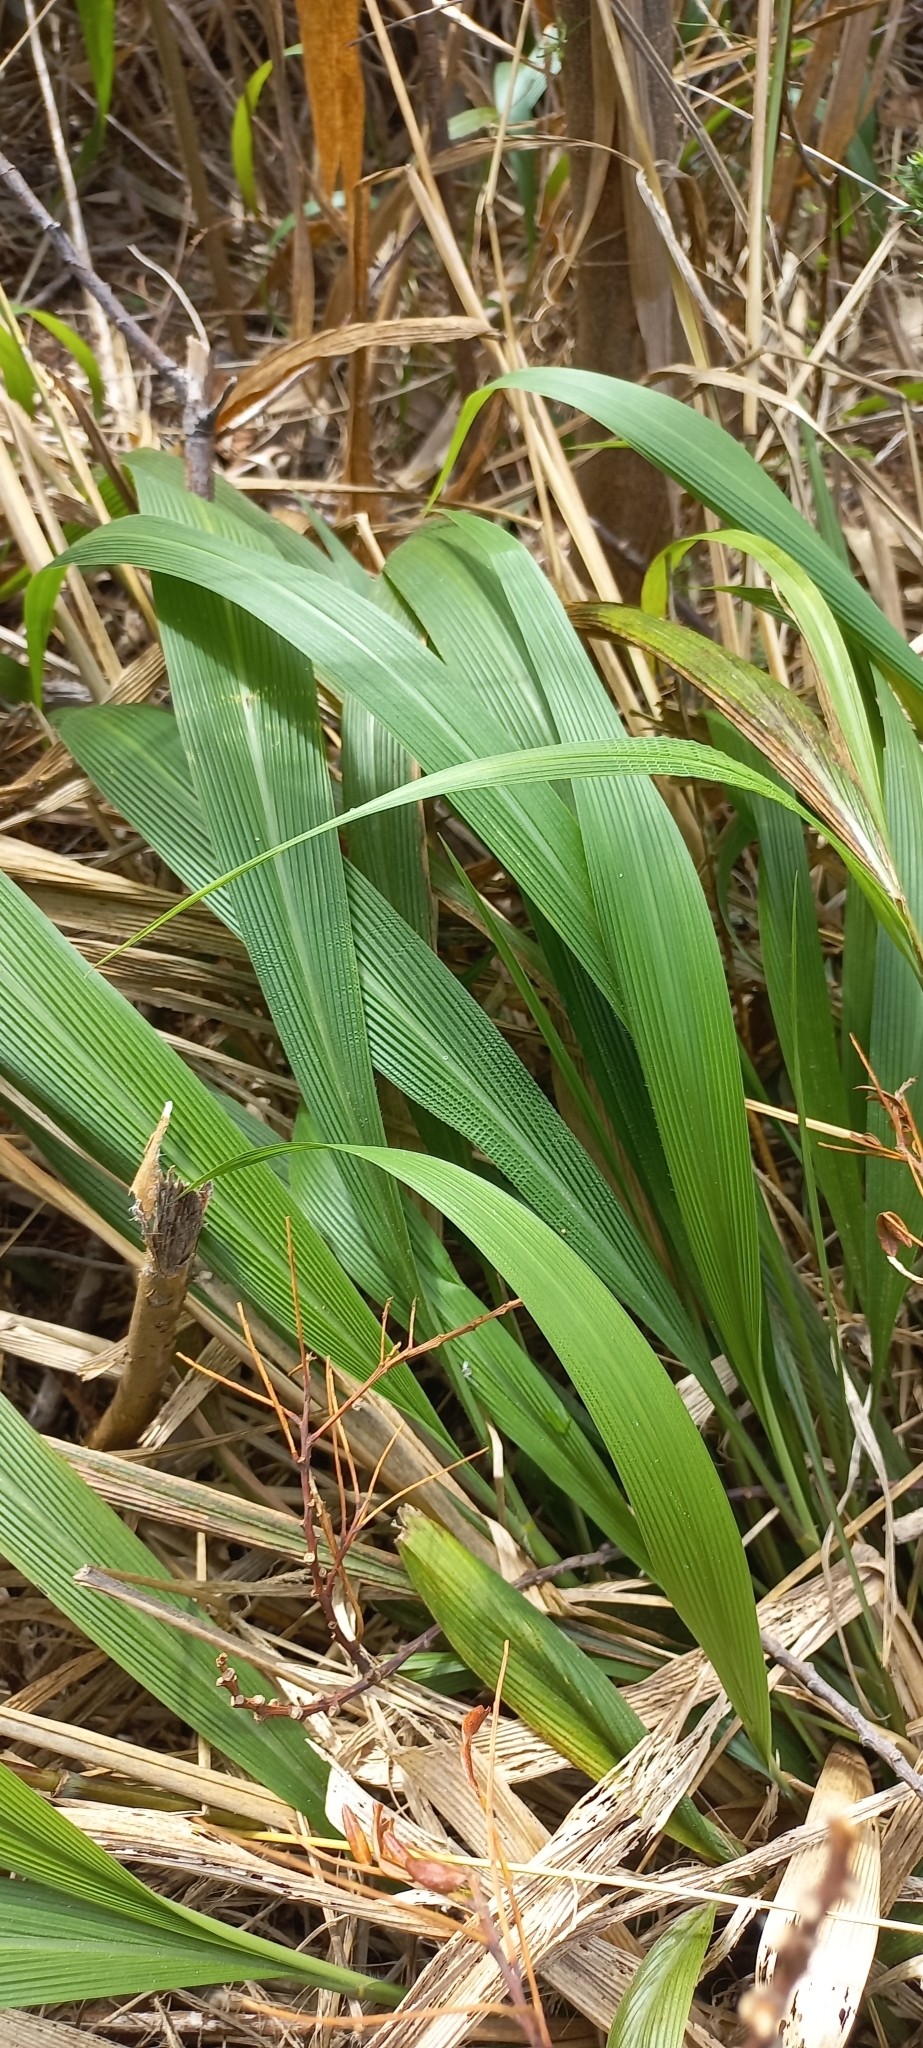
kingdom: Plantae
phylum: Tracheophyta
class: Liliopsida
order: Poales
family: Poaceae
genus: Setaria
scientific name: Setaria megaphylla
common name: Bigleaf bristlegrass
